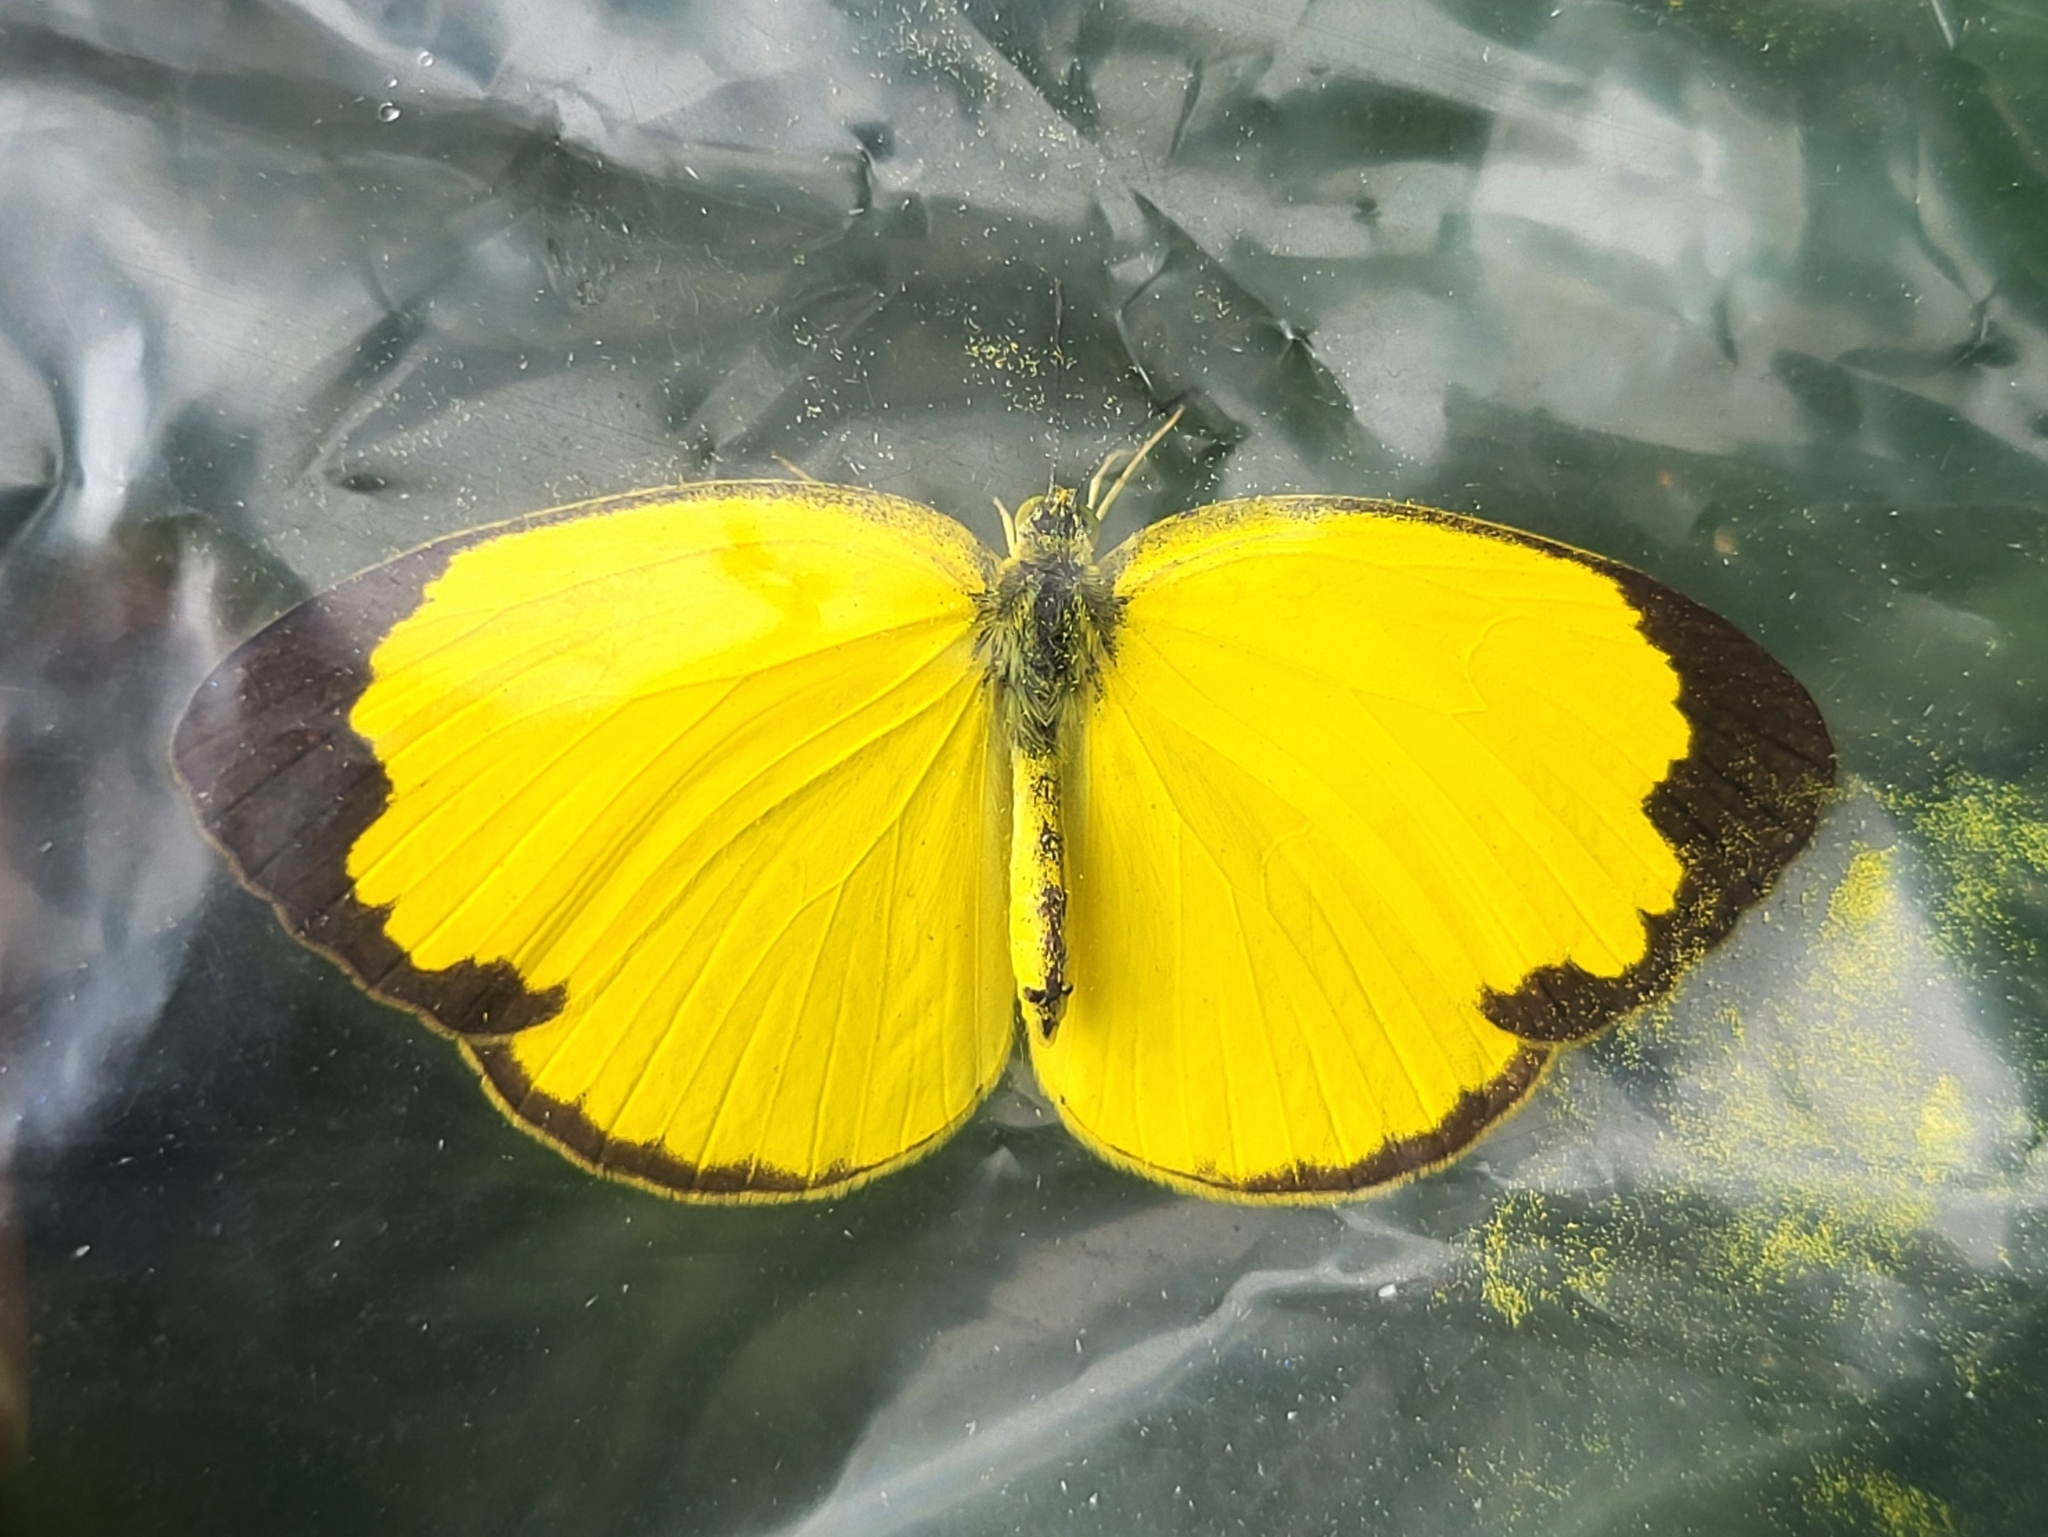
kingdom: Animalia
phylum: Arthropoda
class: Insecta
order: Lepidoptera
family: Pieridae
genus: Eurema
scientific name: Eurema hecabe
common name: Pale grass yellow
